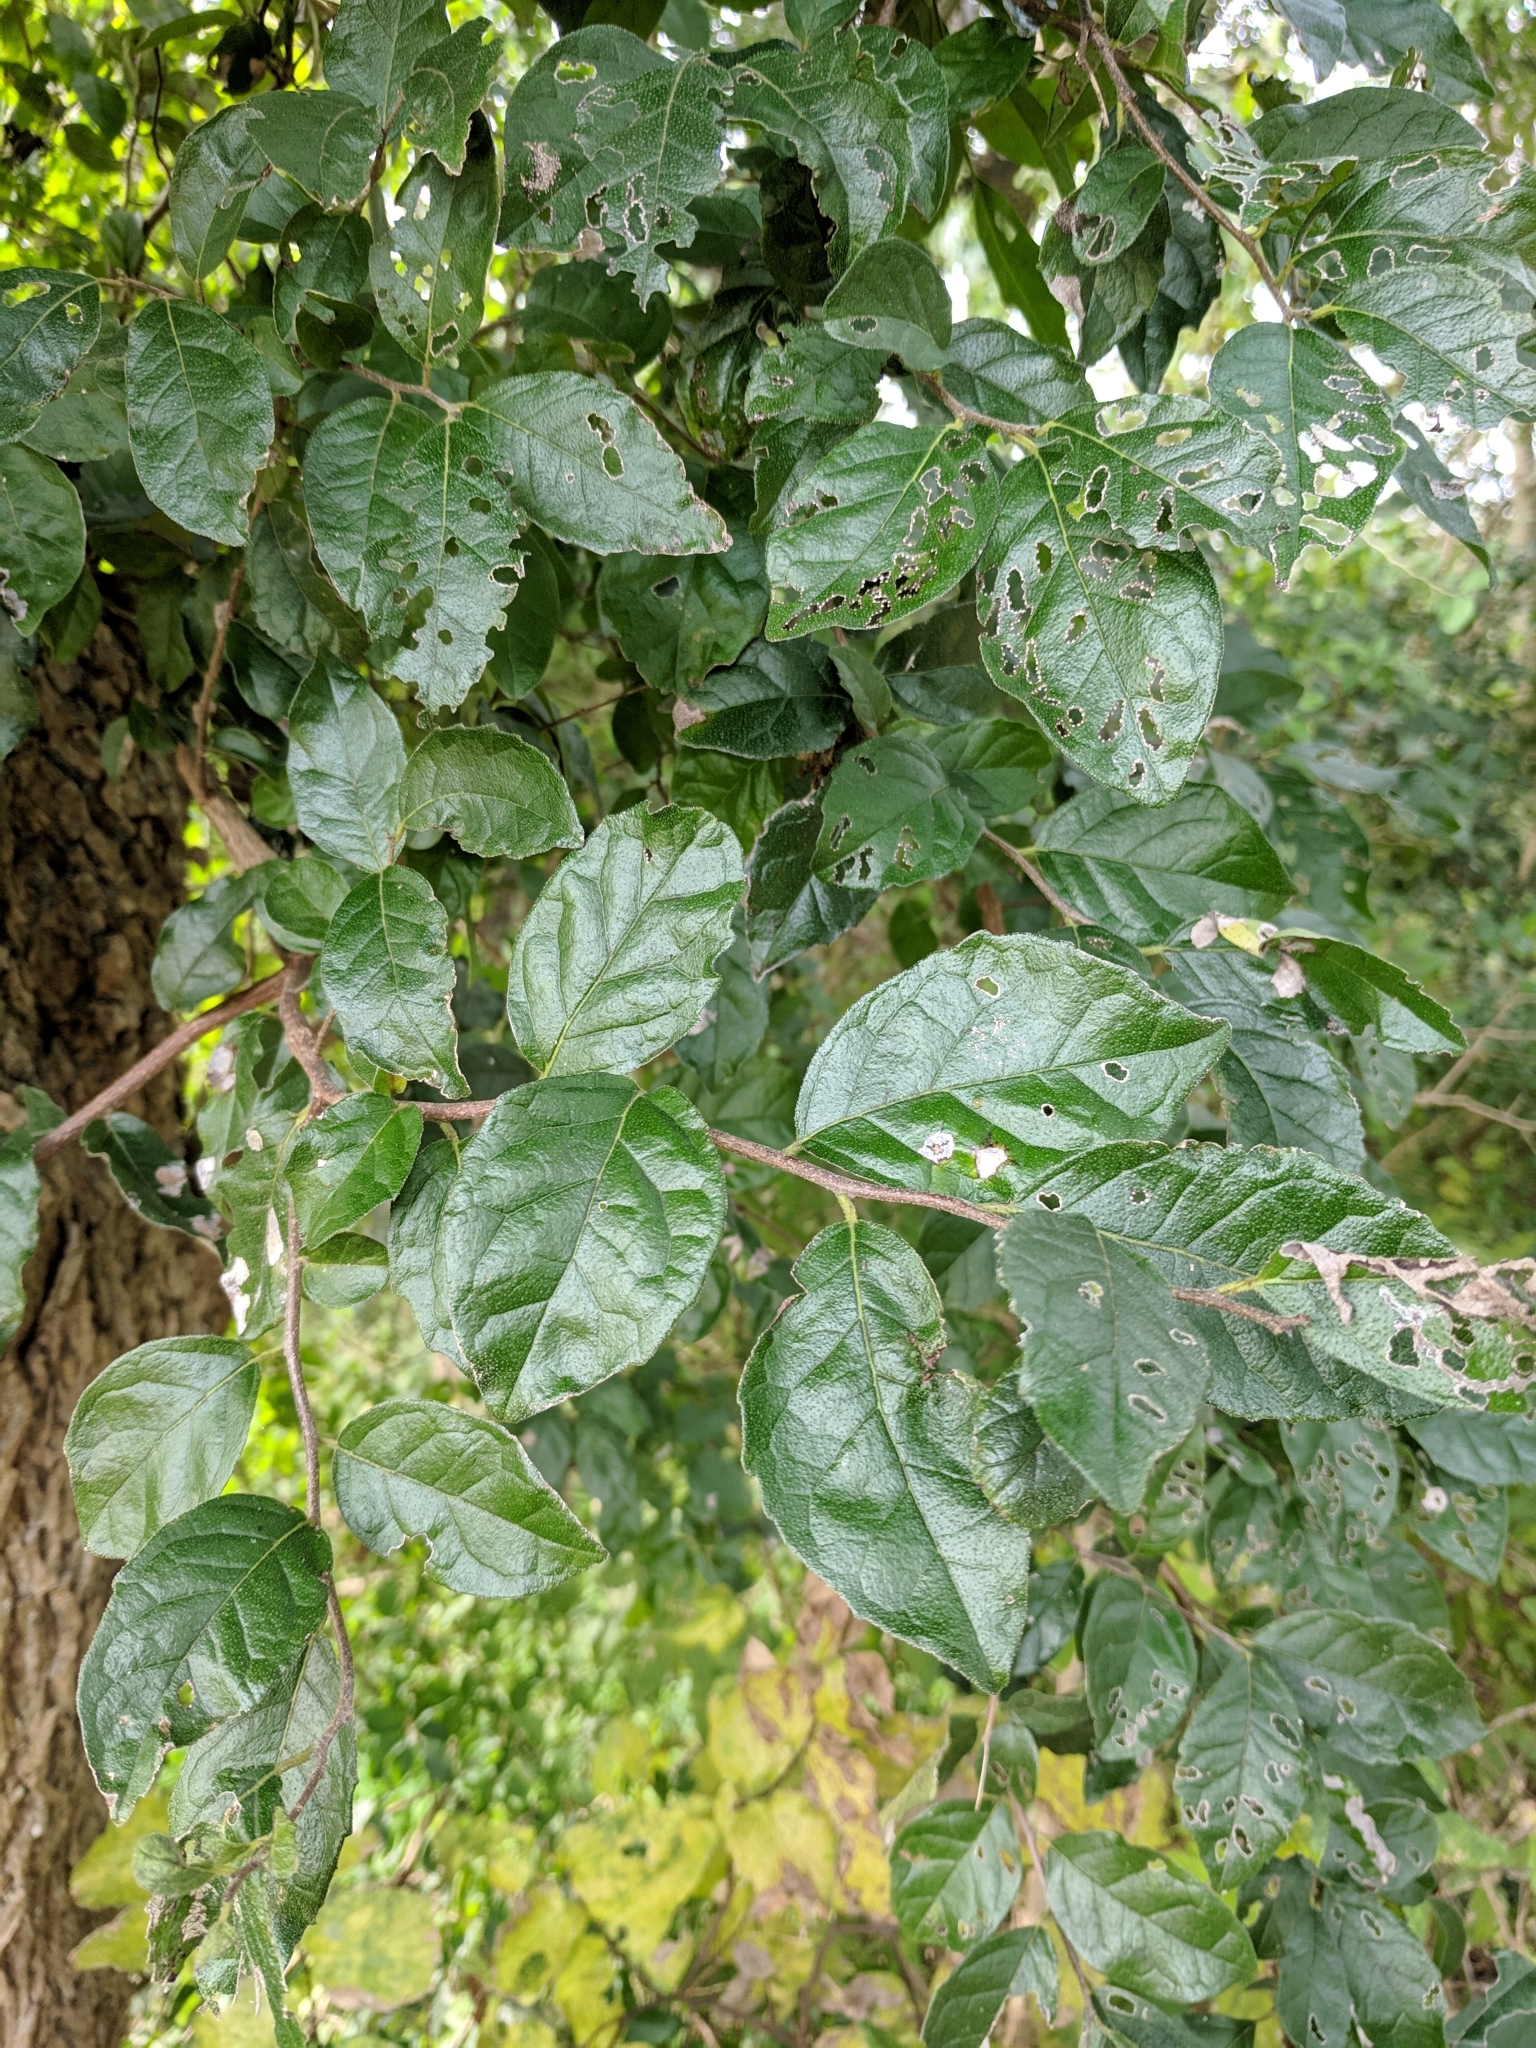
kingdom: Plantae
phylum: Tracheophyta
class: Magnoliopsida
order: Boraginales
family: Ehretiaceae
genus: Ehretia
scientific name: Ehretia anacua
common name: Sugarberry
